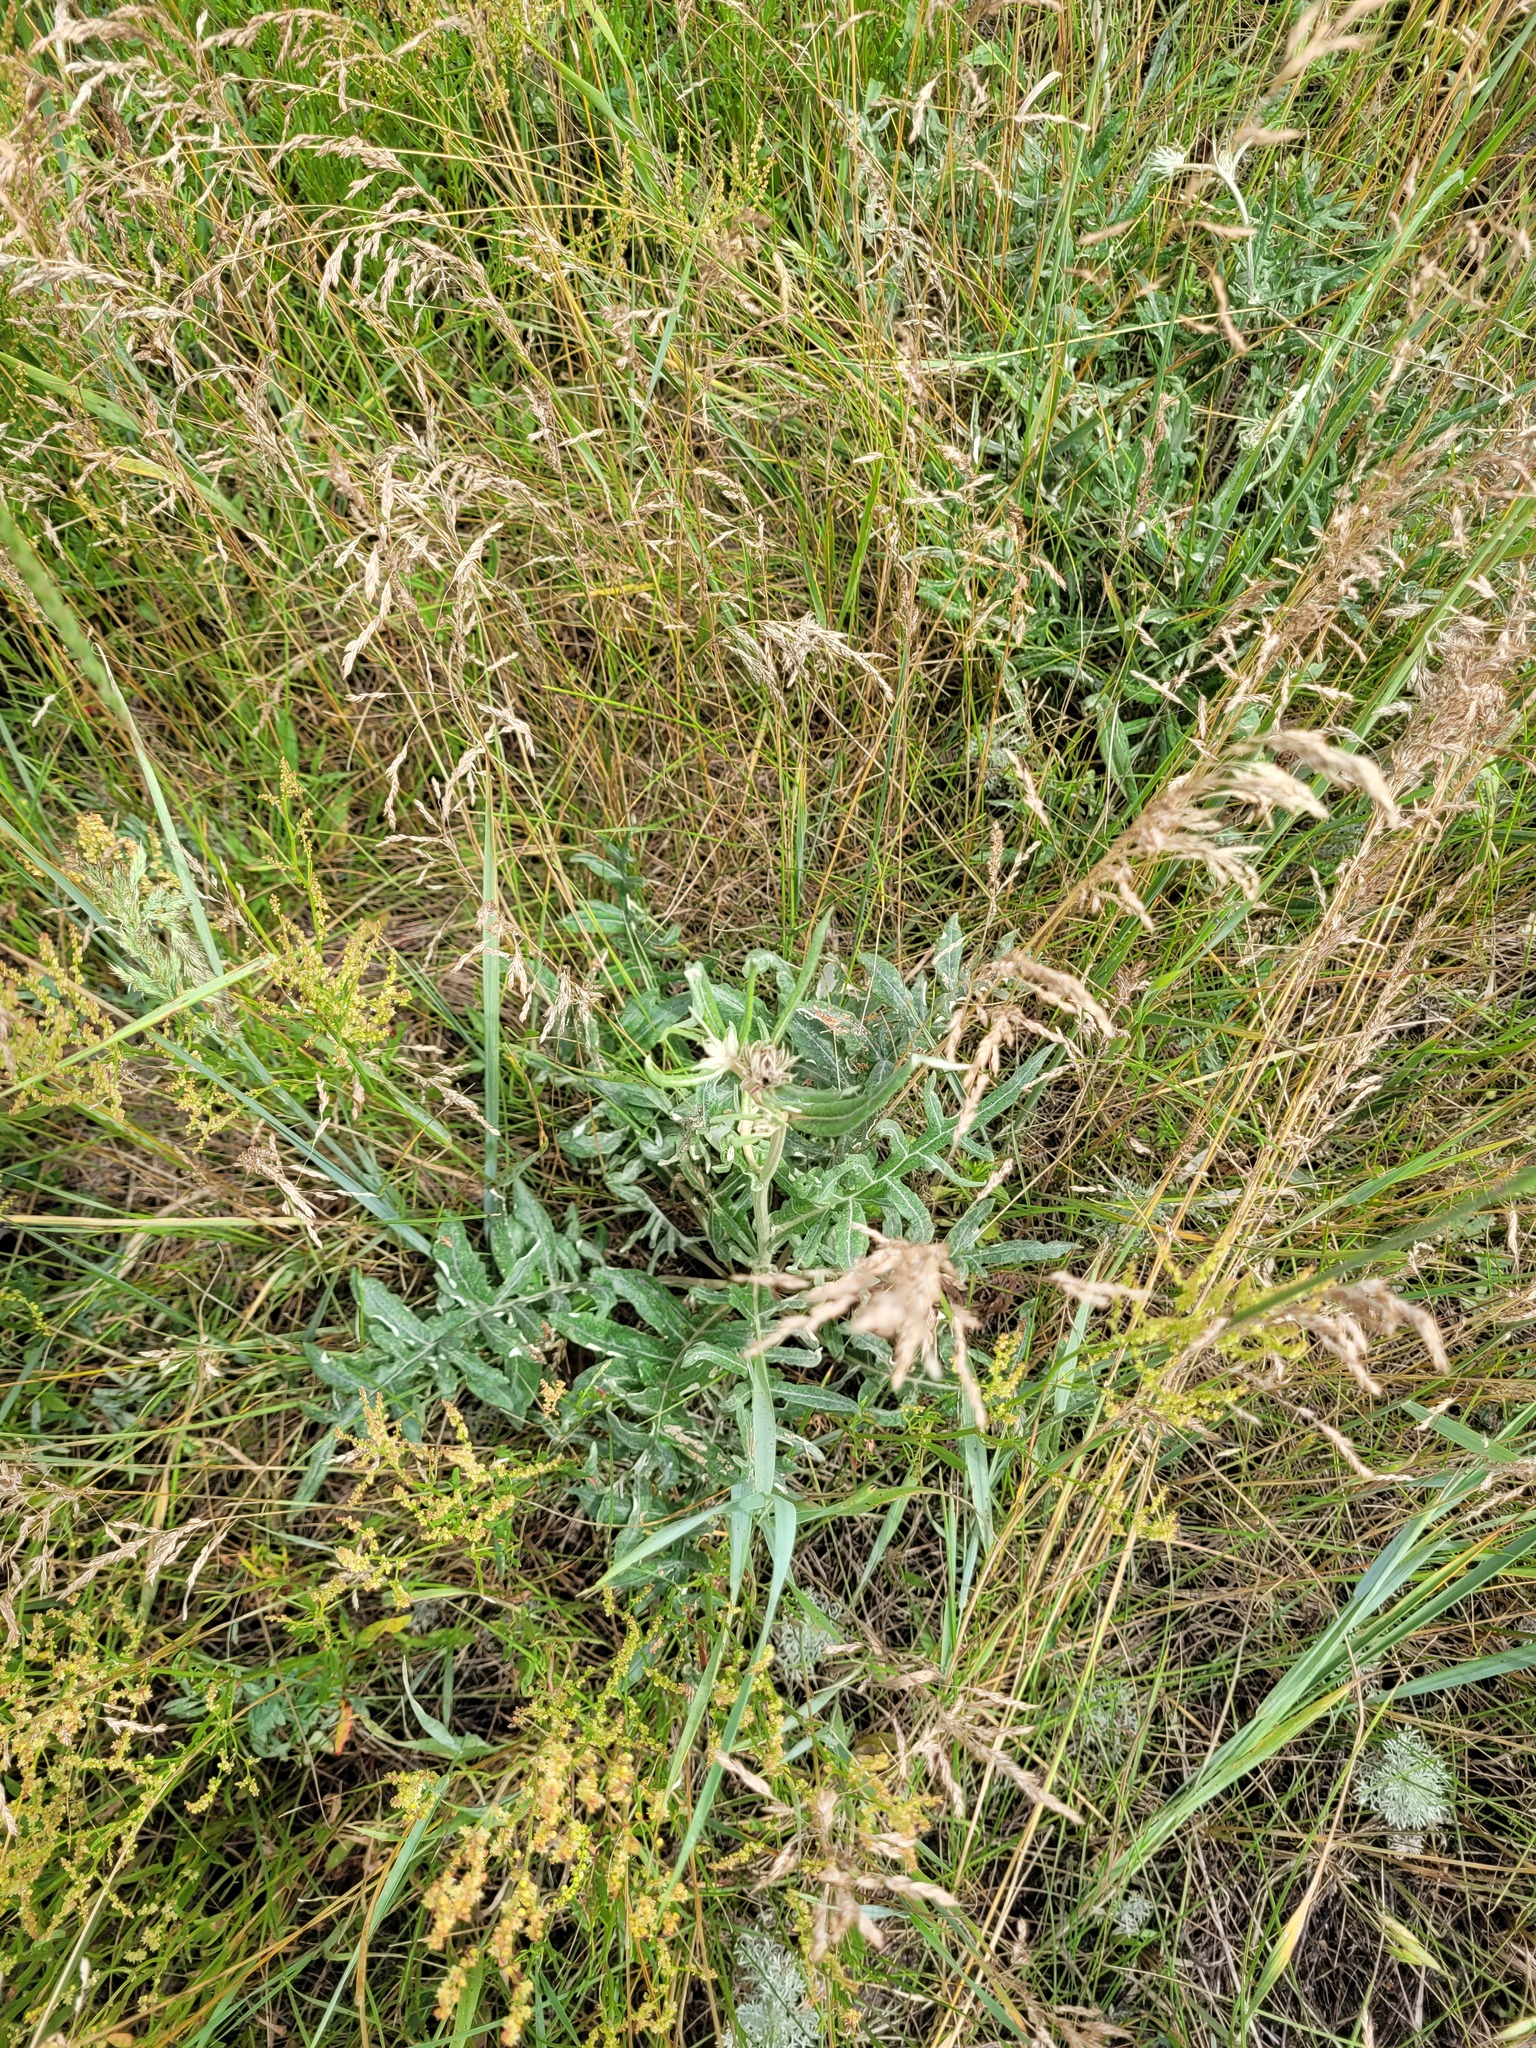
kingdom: Plantae
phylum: Tracheophyta
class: Magnoliopsida
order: Asterales
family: Asteraceae
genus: Jurinea
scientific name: Jurinea cyanoides
